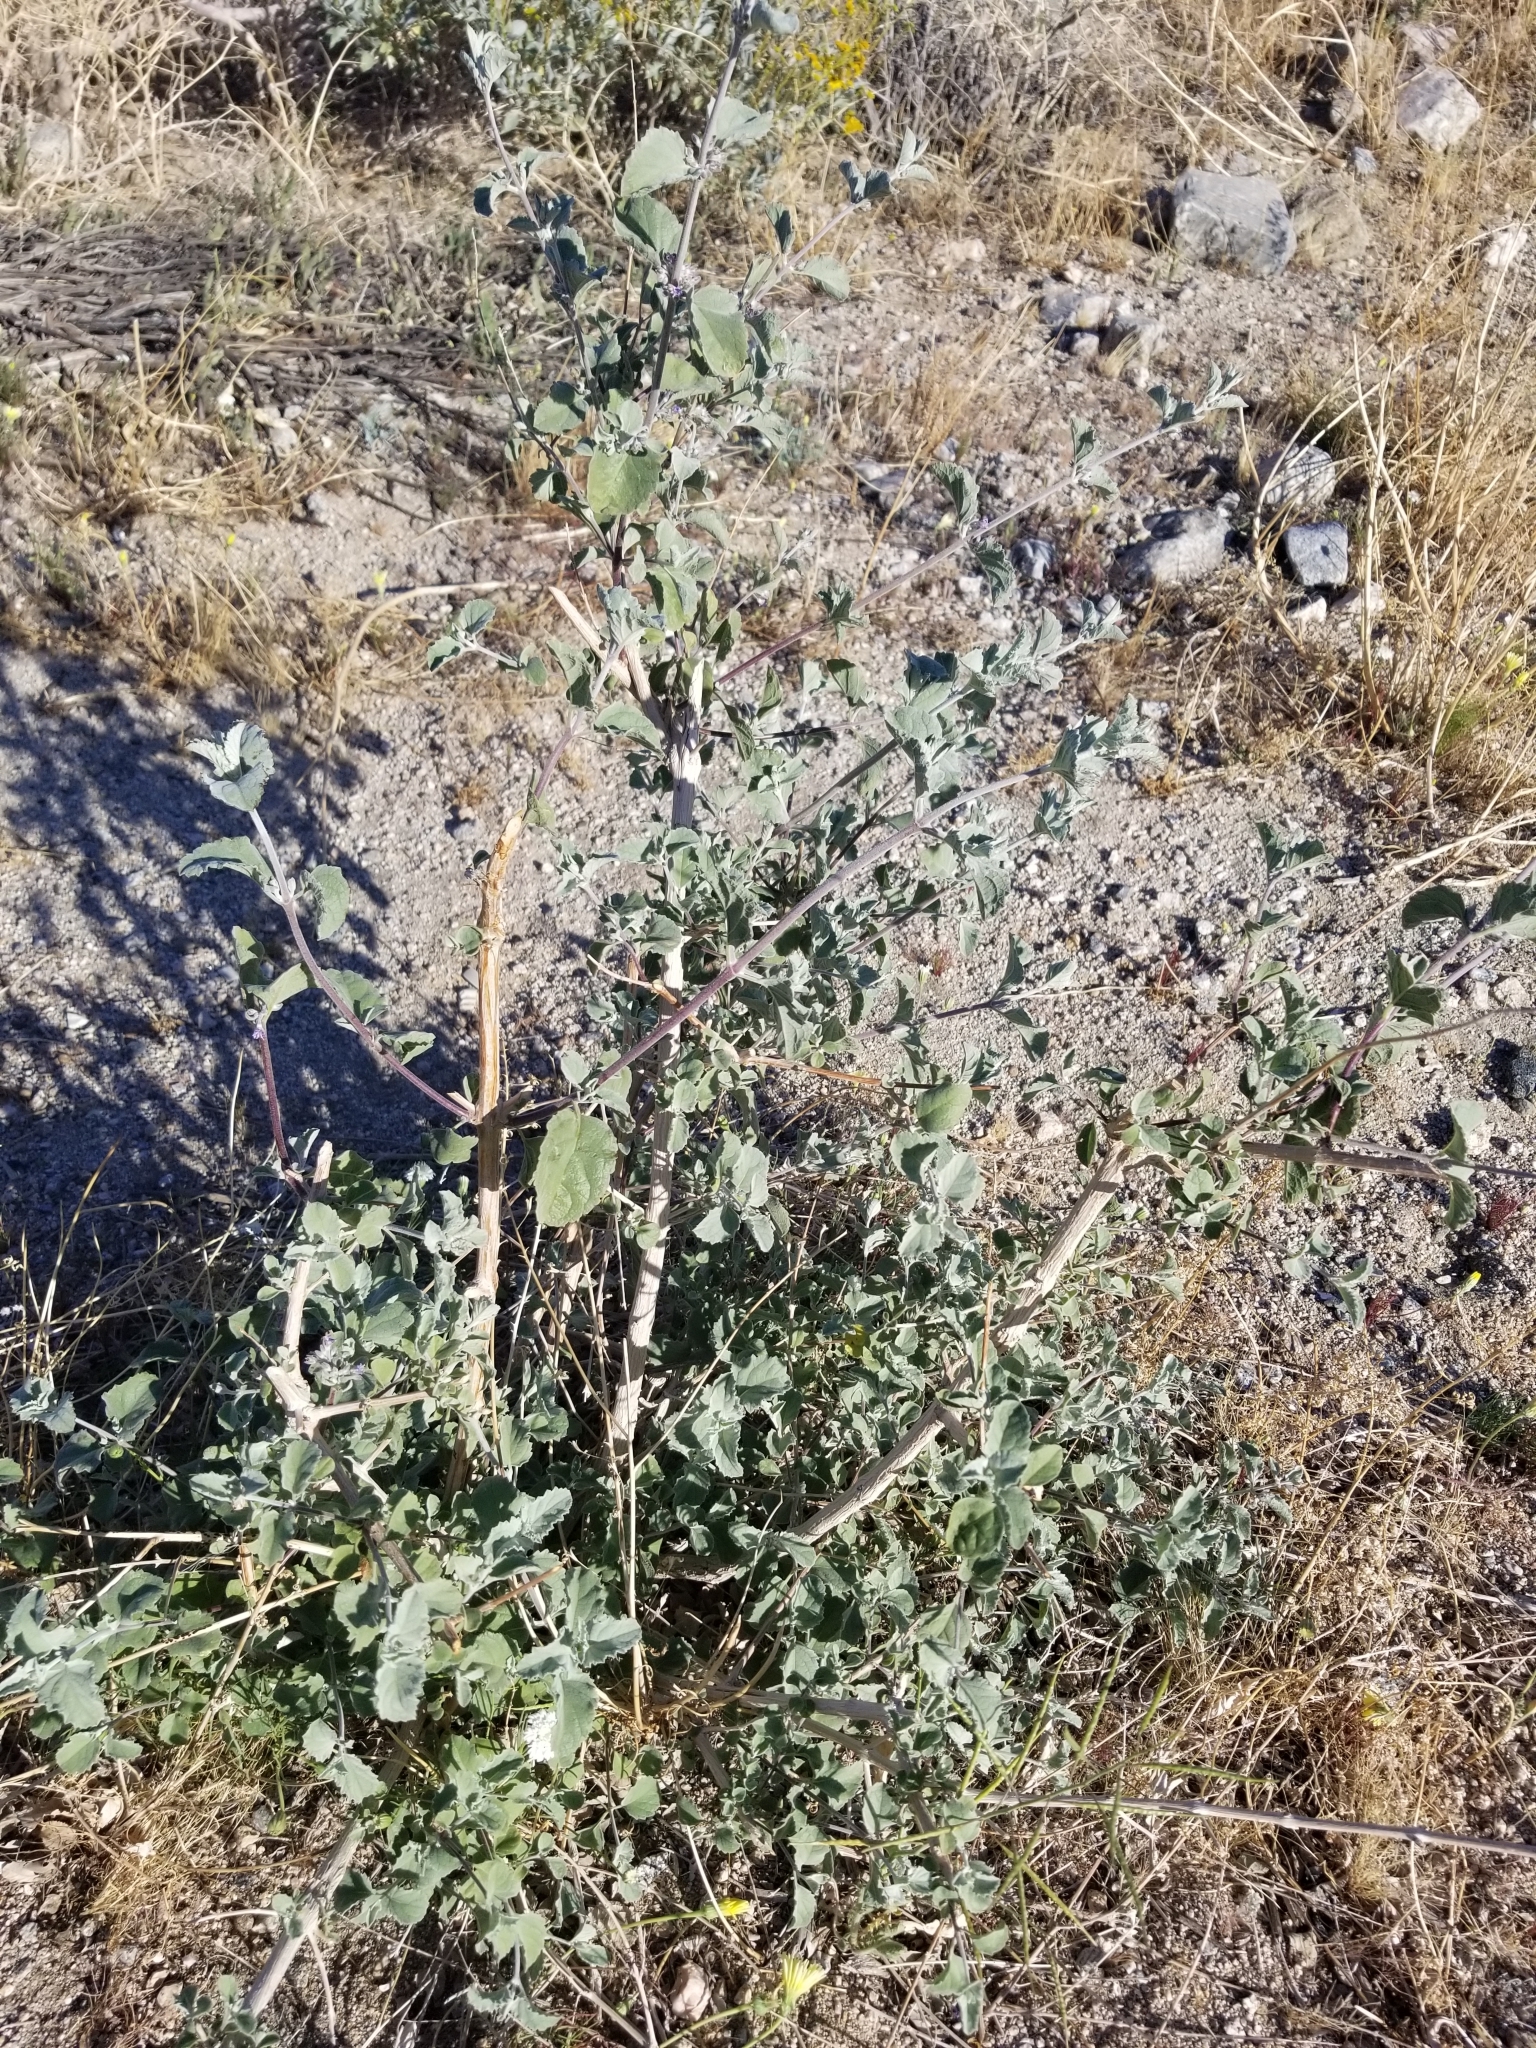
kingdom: Plantae
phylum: Tracheophyta
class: Magnoliopsida
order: Lamiales
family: Lamiaceae
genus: Condea
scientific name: Condea emoryi
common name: Chia
